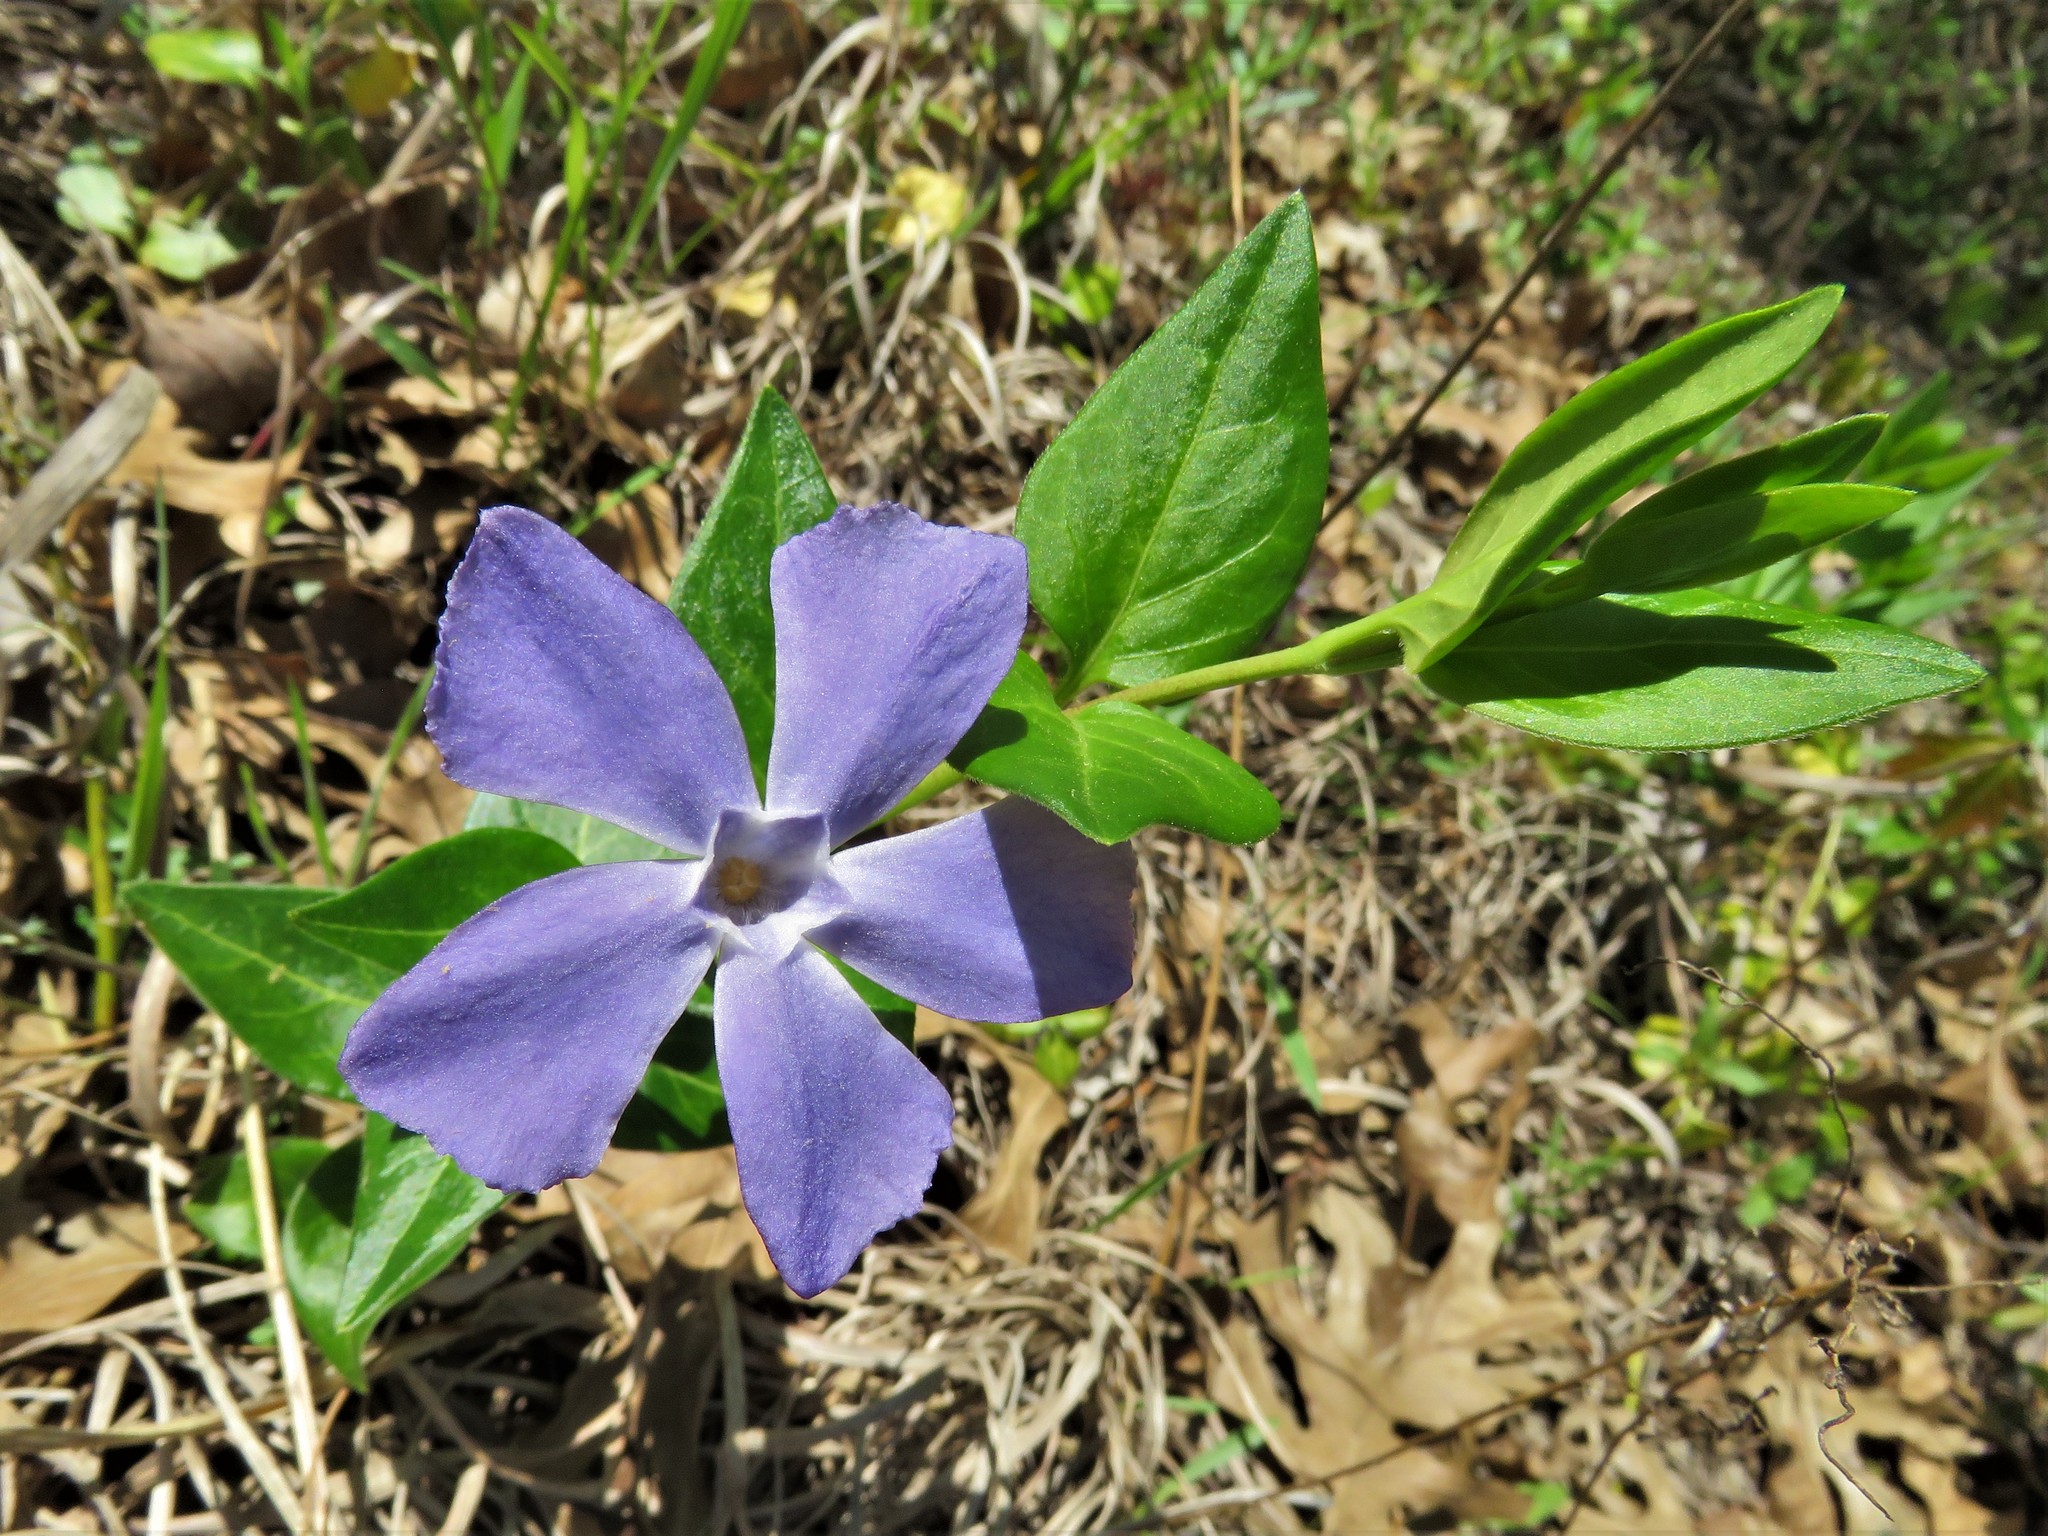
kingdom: Plantae
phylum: Tracheophyta
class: Magnoliopsida
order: Gentianales
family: Apocynaceae
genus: Vinca
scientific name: Vinca major
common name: Greater periwinkle
